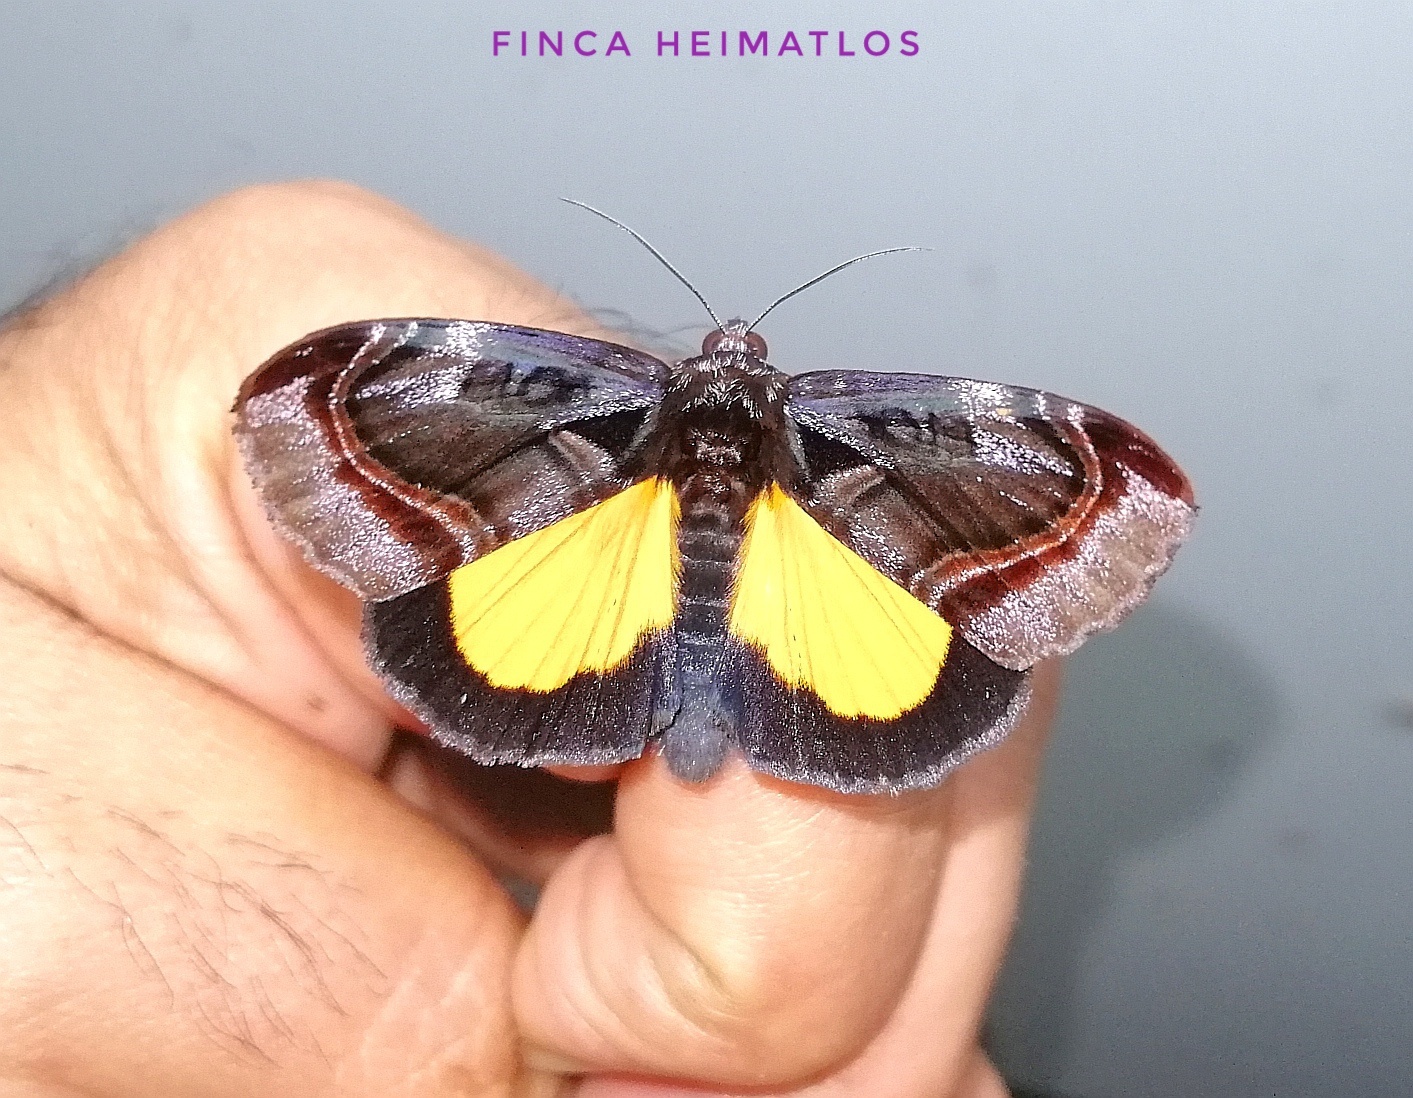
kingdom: Animalia
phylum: Arthropoda
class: Insecta
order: Lepidoptera
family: Noctuidae
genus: Darceta
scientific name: Darceta falcata
